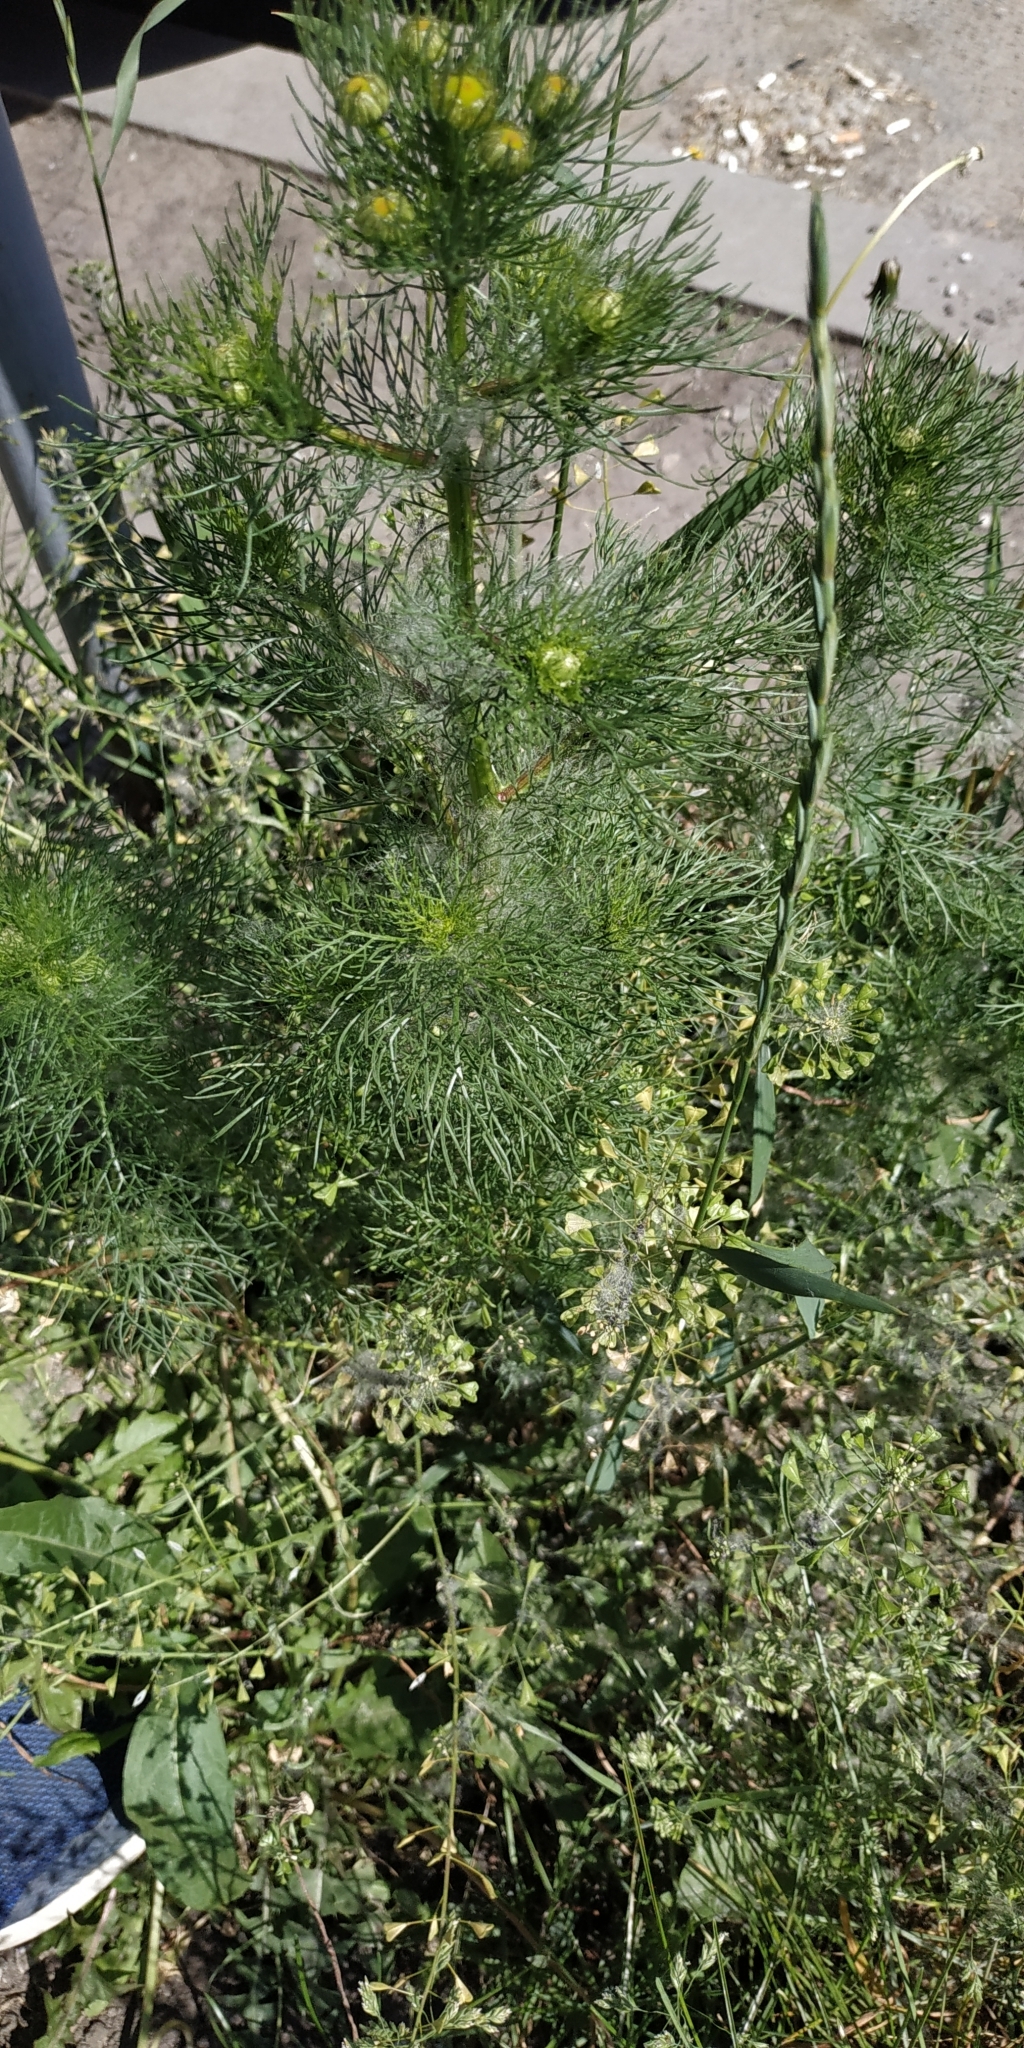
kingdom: Plantae
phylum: Tracheophyta
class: Magnoliopsida
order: Asterales
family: Asteraceae
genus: Tripleurospermum
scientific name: Tripleurospermum inodorum
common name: Scentless mayweed
